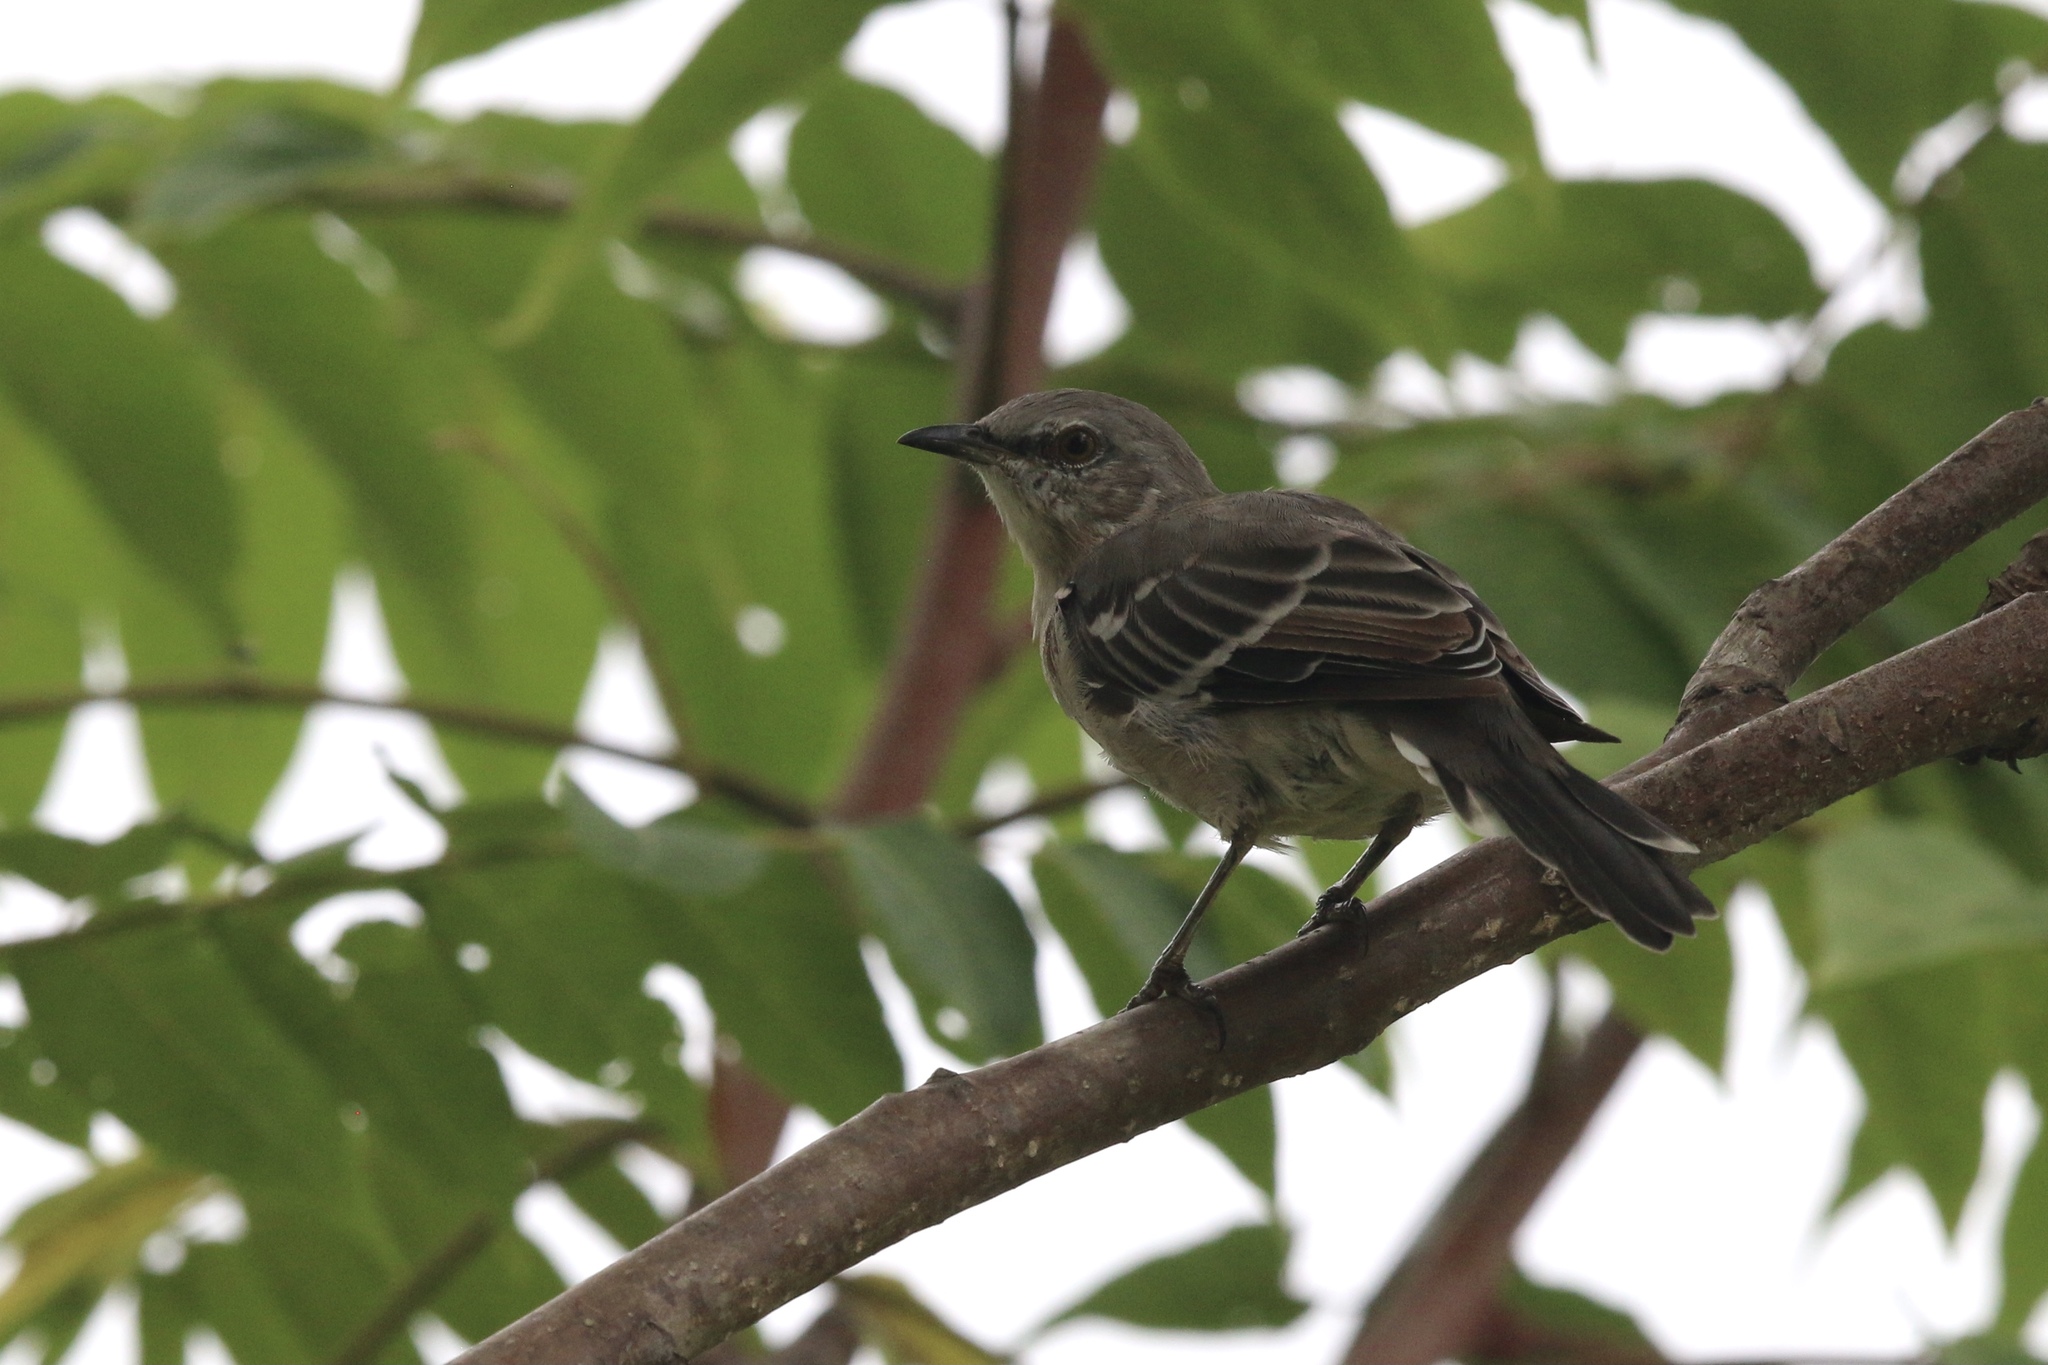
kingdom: Animalia
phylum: Chordata
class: Aves
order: Passeriformes
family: Mimidae
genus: Mimus
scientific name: Mimus polyglottos
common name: Northern mockingbird
